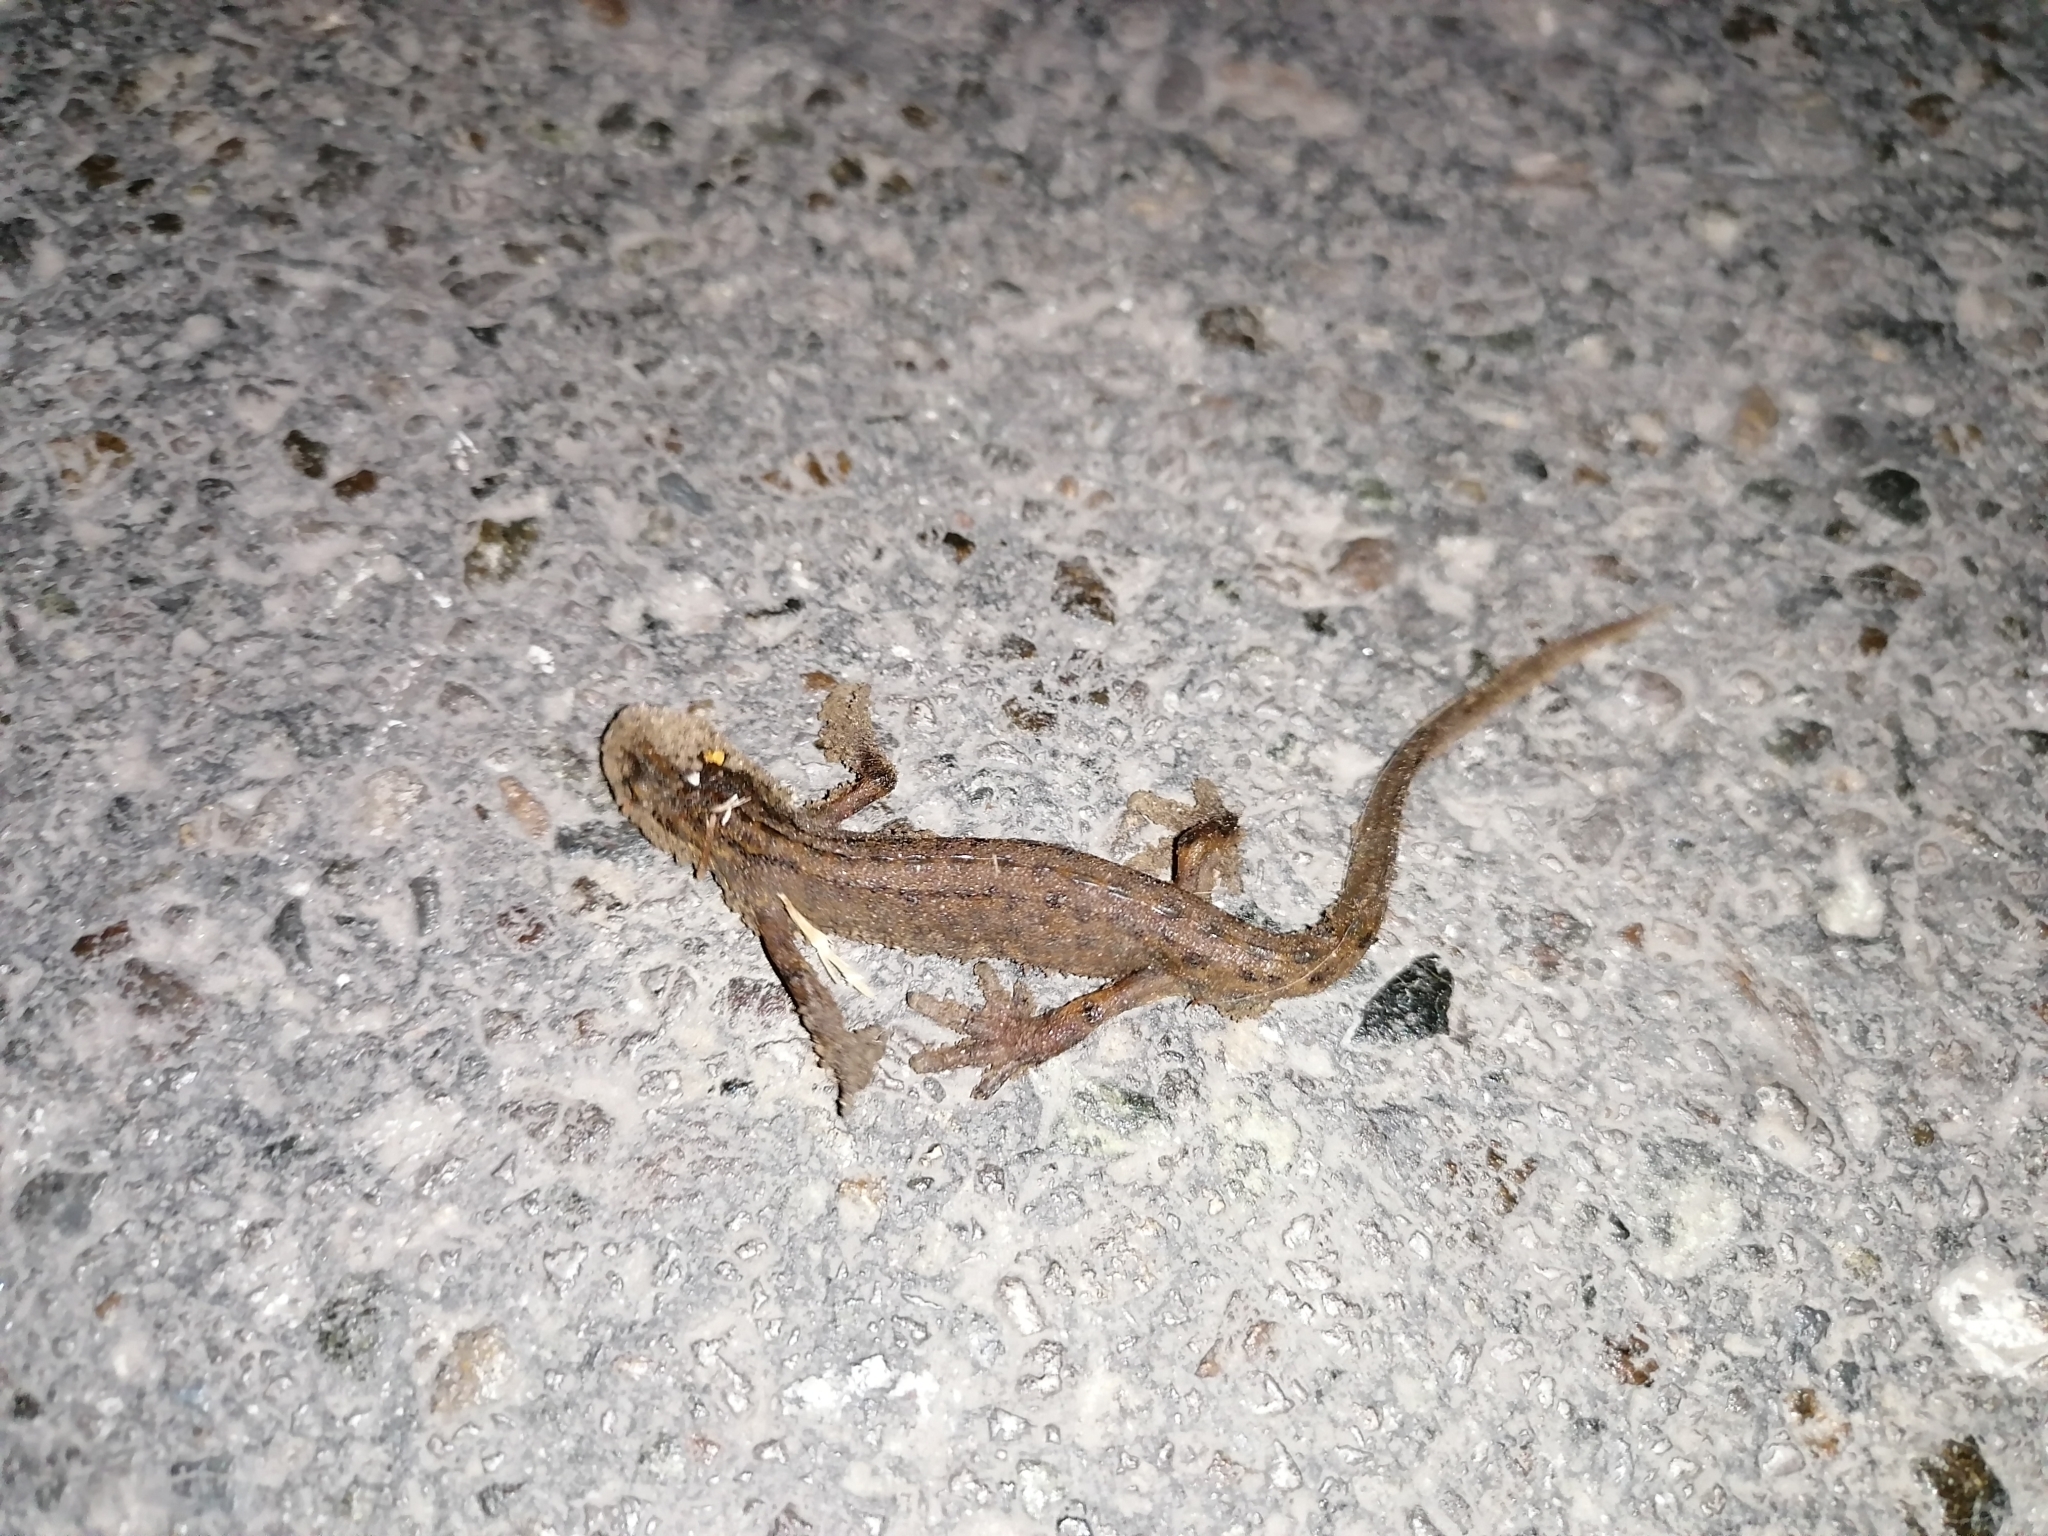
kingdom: Animalia
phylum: Chordata
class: Amphibia
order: Caudata
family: Salamandridae
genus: Lissotriton
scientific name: Lissotriton vulgaris
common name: Smooth newt
